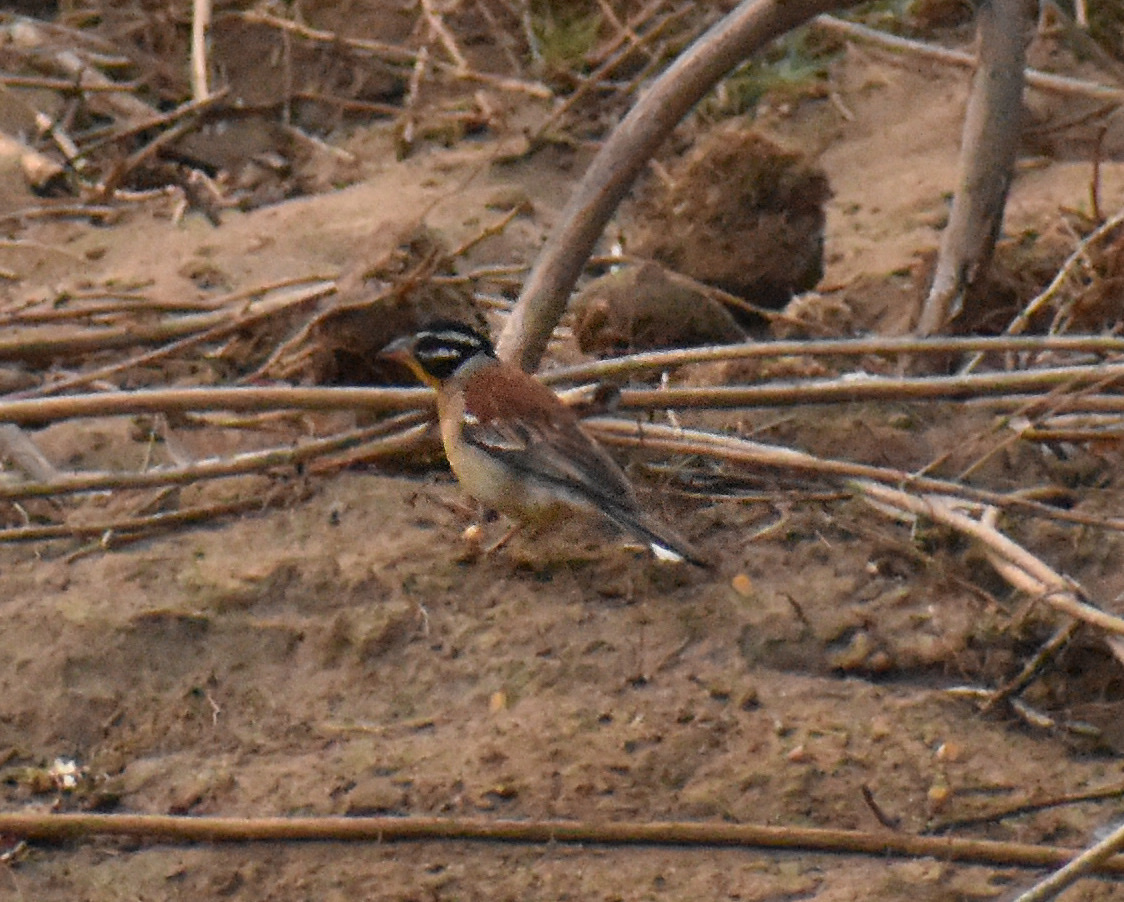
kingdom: Animalia
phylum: Chordata
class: Aves
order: Passeriformes
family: Emberizidae
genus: Emberiza
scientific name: Emberiza flaviventris
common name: Golden-breasted bunting
